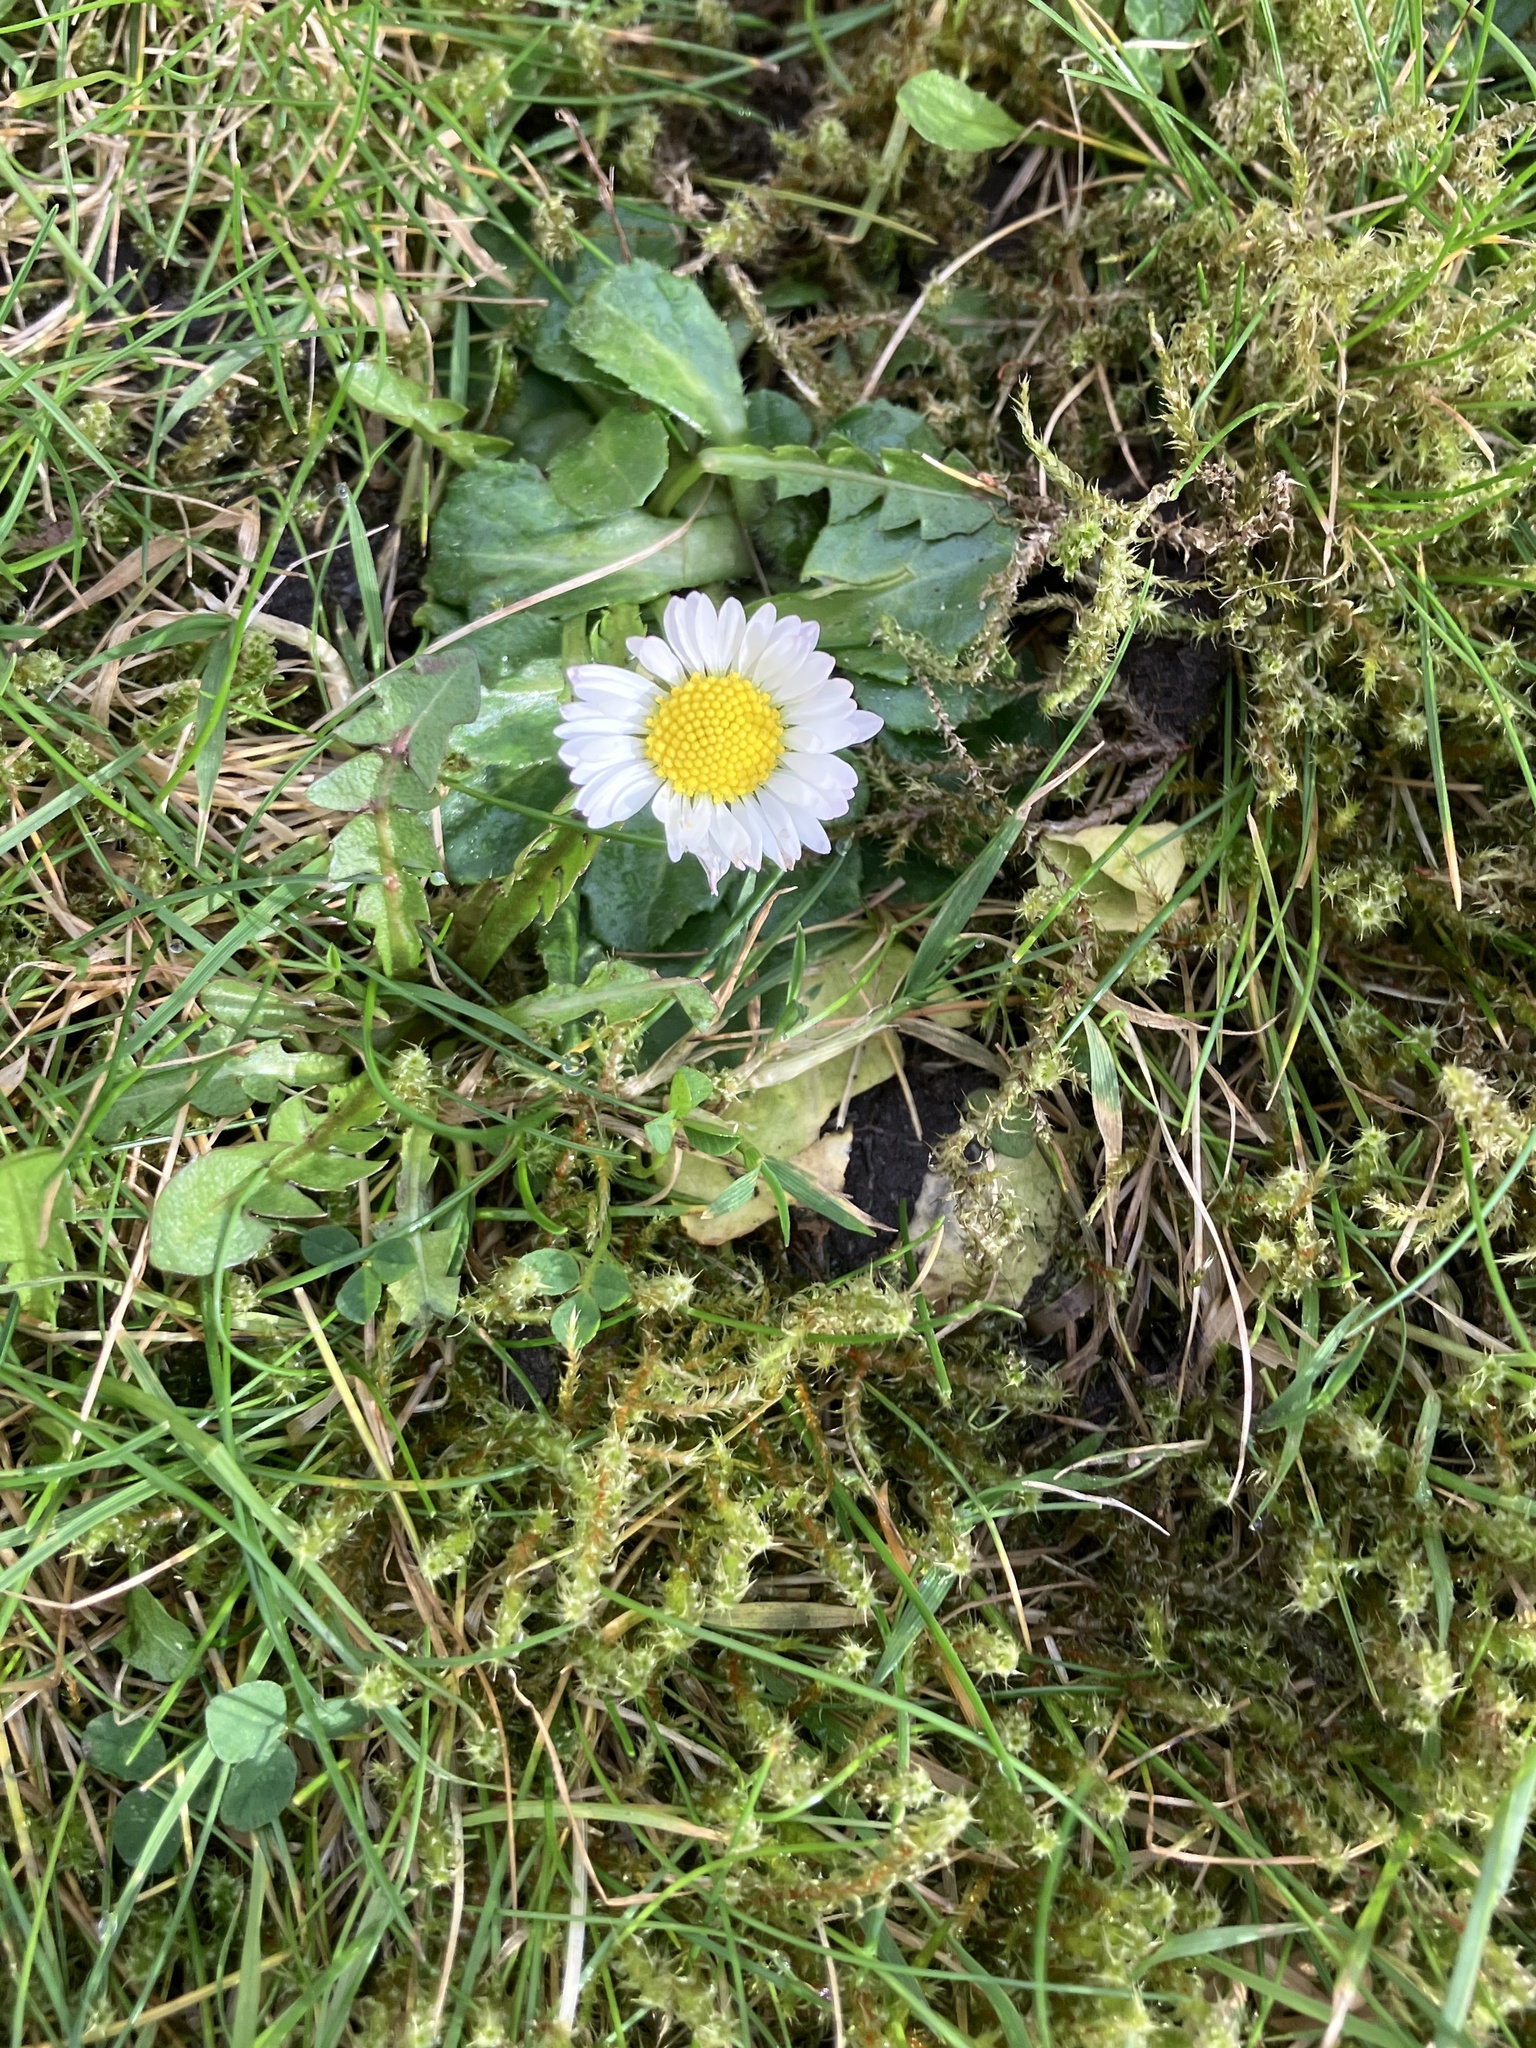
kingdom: Plantae
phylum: Tracheophyta
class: Magnoliopsida
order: Asterales
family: Asteraceae
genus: Bellis
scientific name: Bellis perennis
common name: Lawndaisy
